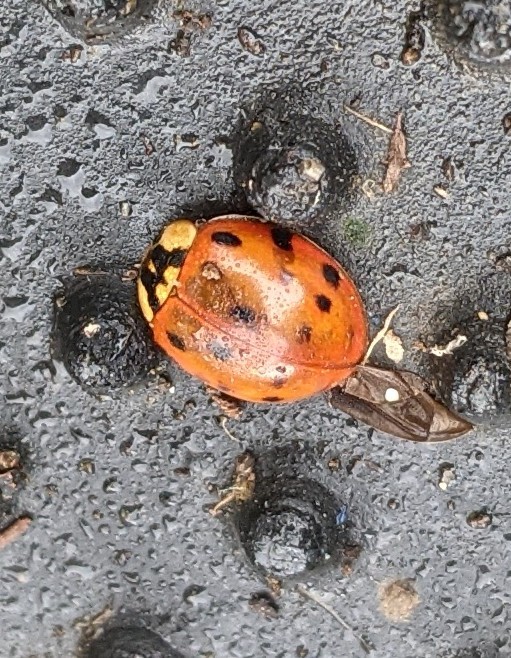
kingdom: Animalia
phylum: Arthropoda
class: Insecta
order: Coleoptera
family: Coccinellidae
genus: Harmonia
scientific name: Harmonia axyridis
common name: Harlequin ladybird
